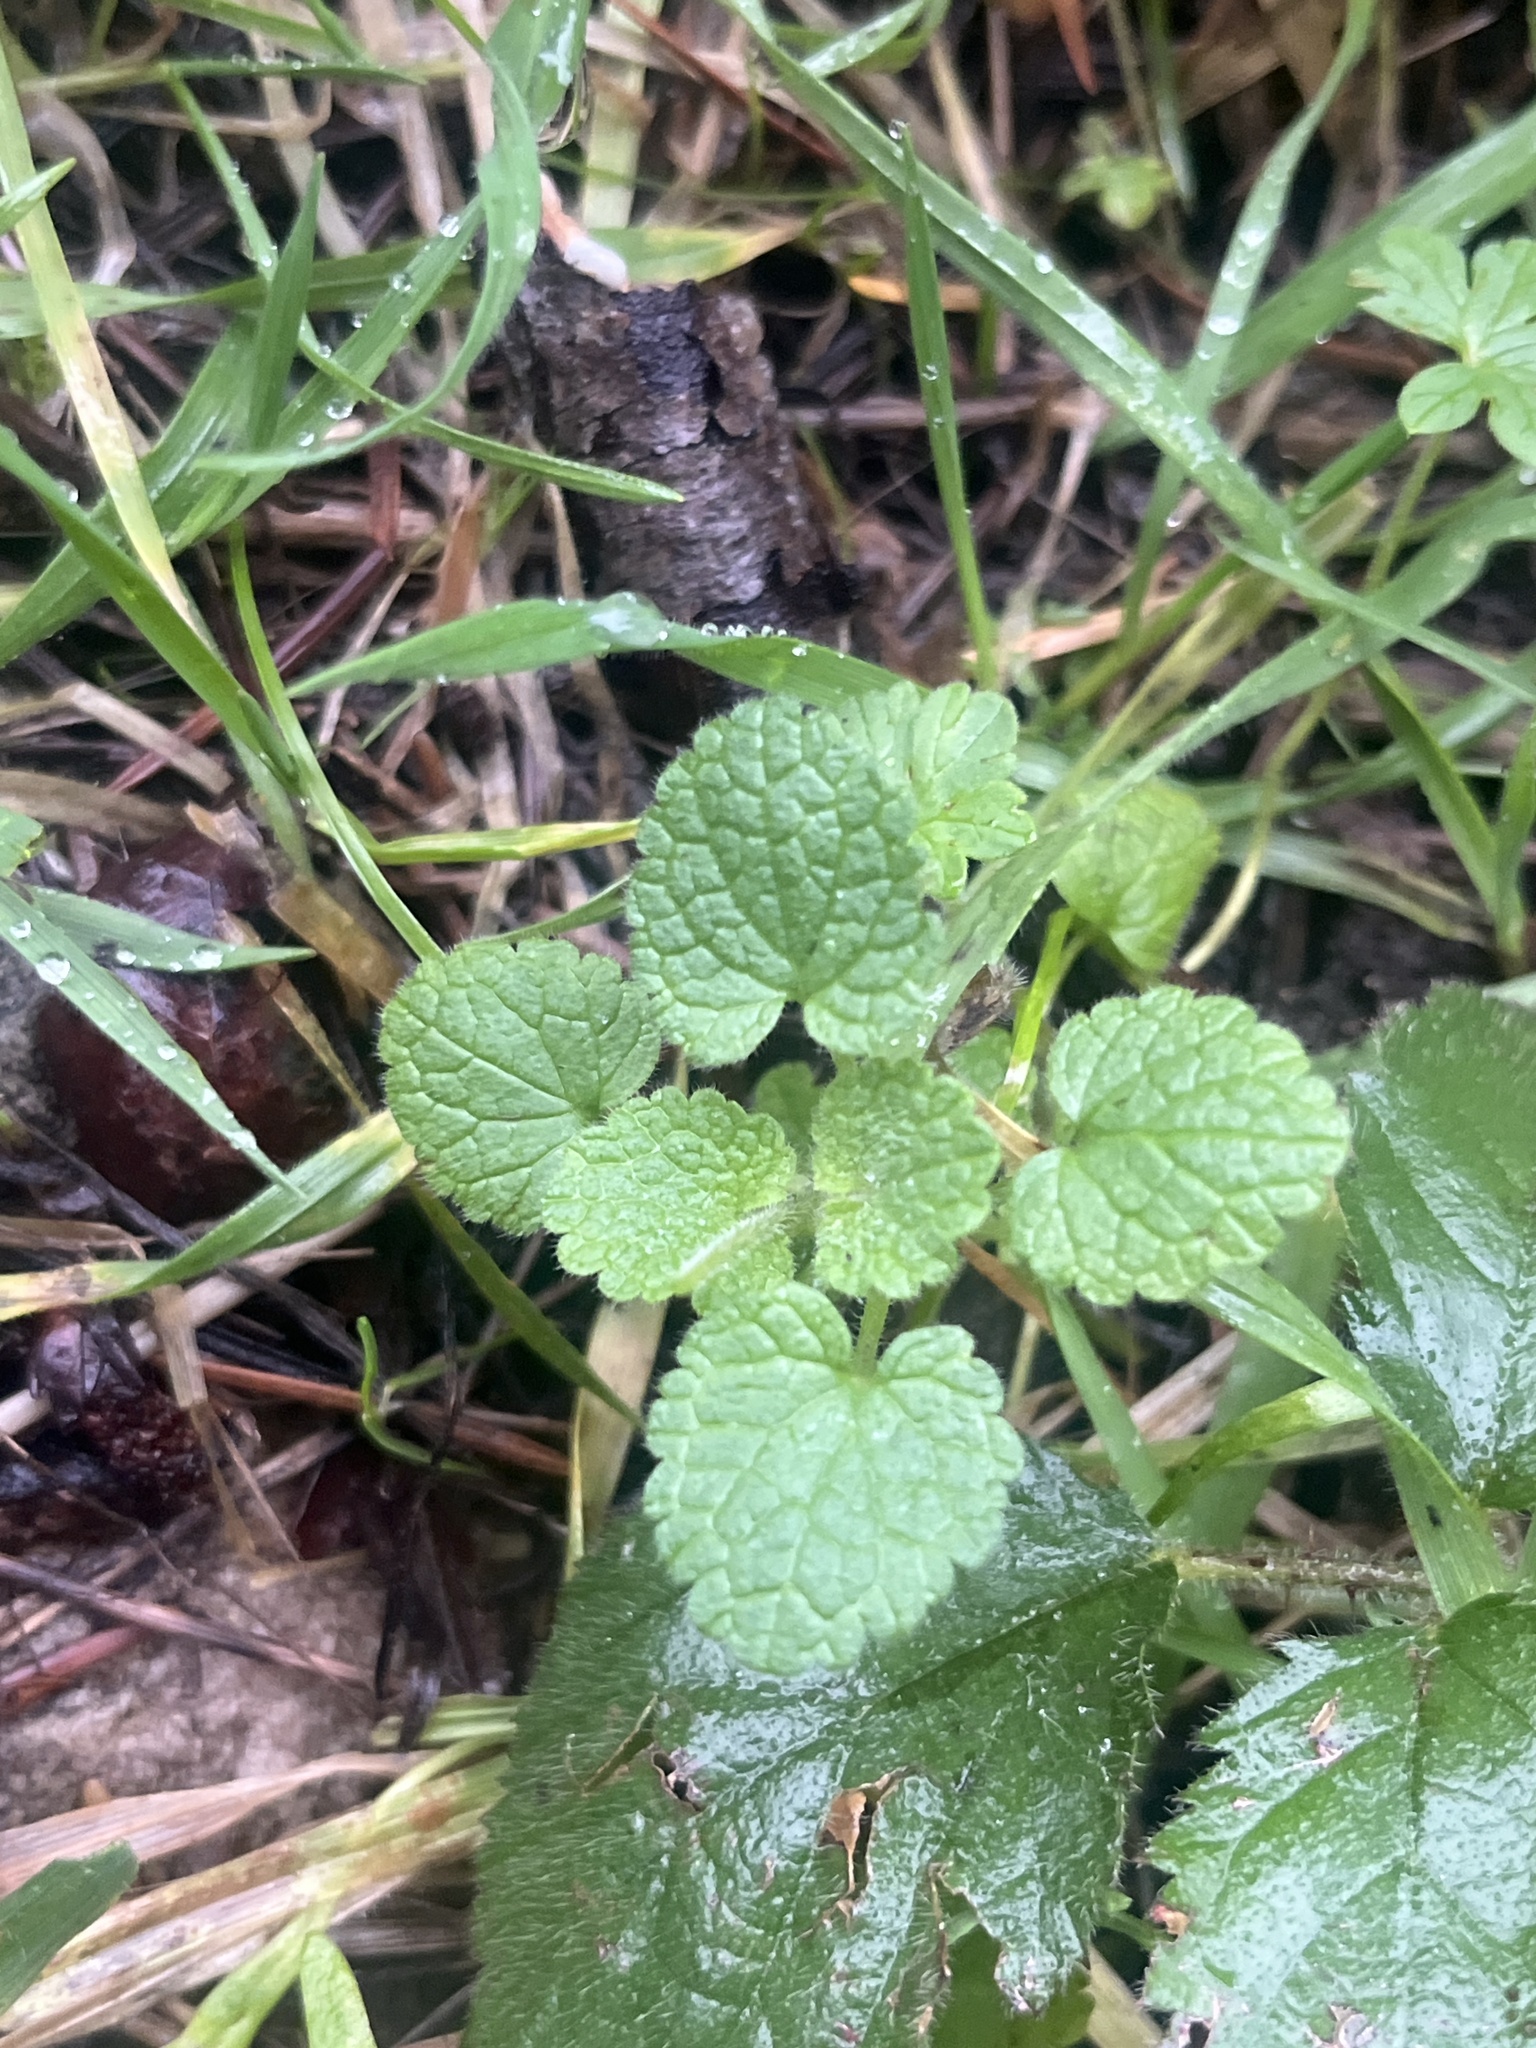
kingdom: Plantae
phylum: Tracheophyta
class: Magnoliopsida
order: Lamiales
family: Lamiaceae
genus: Lamium
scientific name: Lamium purpureum
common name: Red dead-nettle
